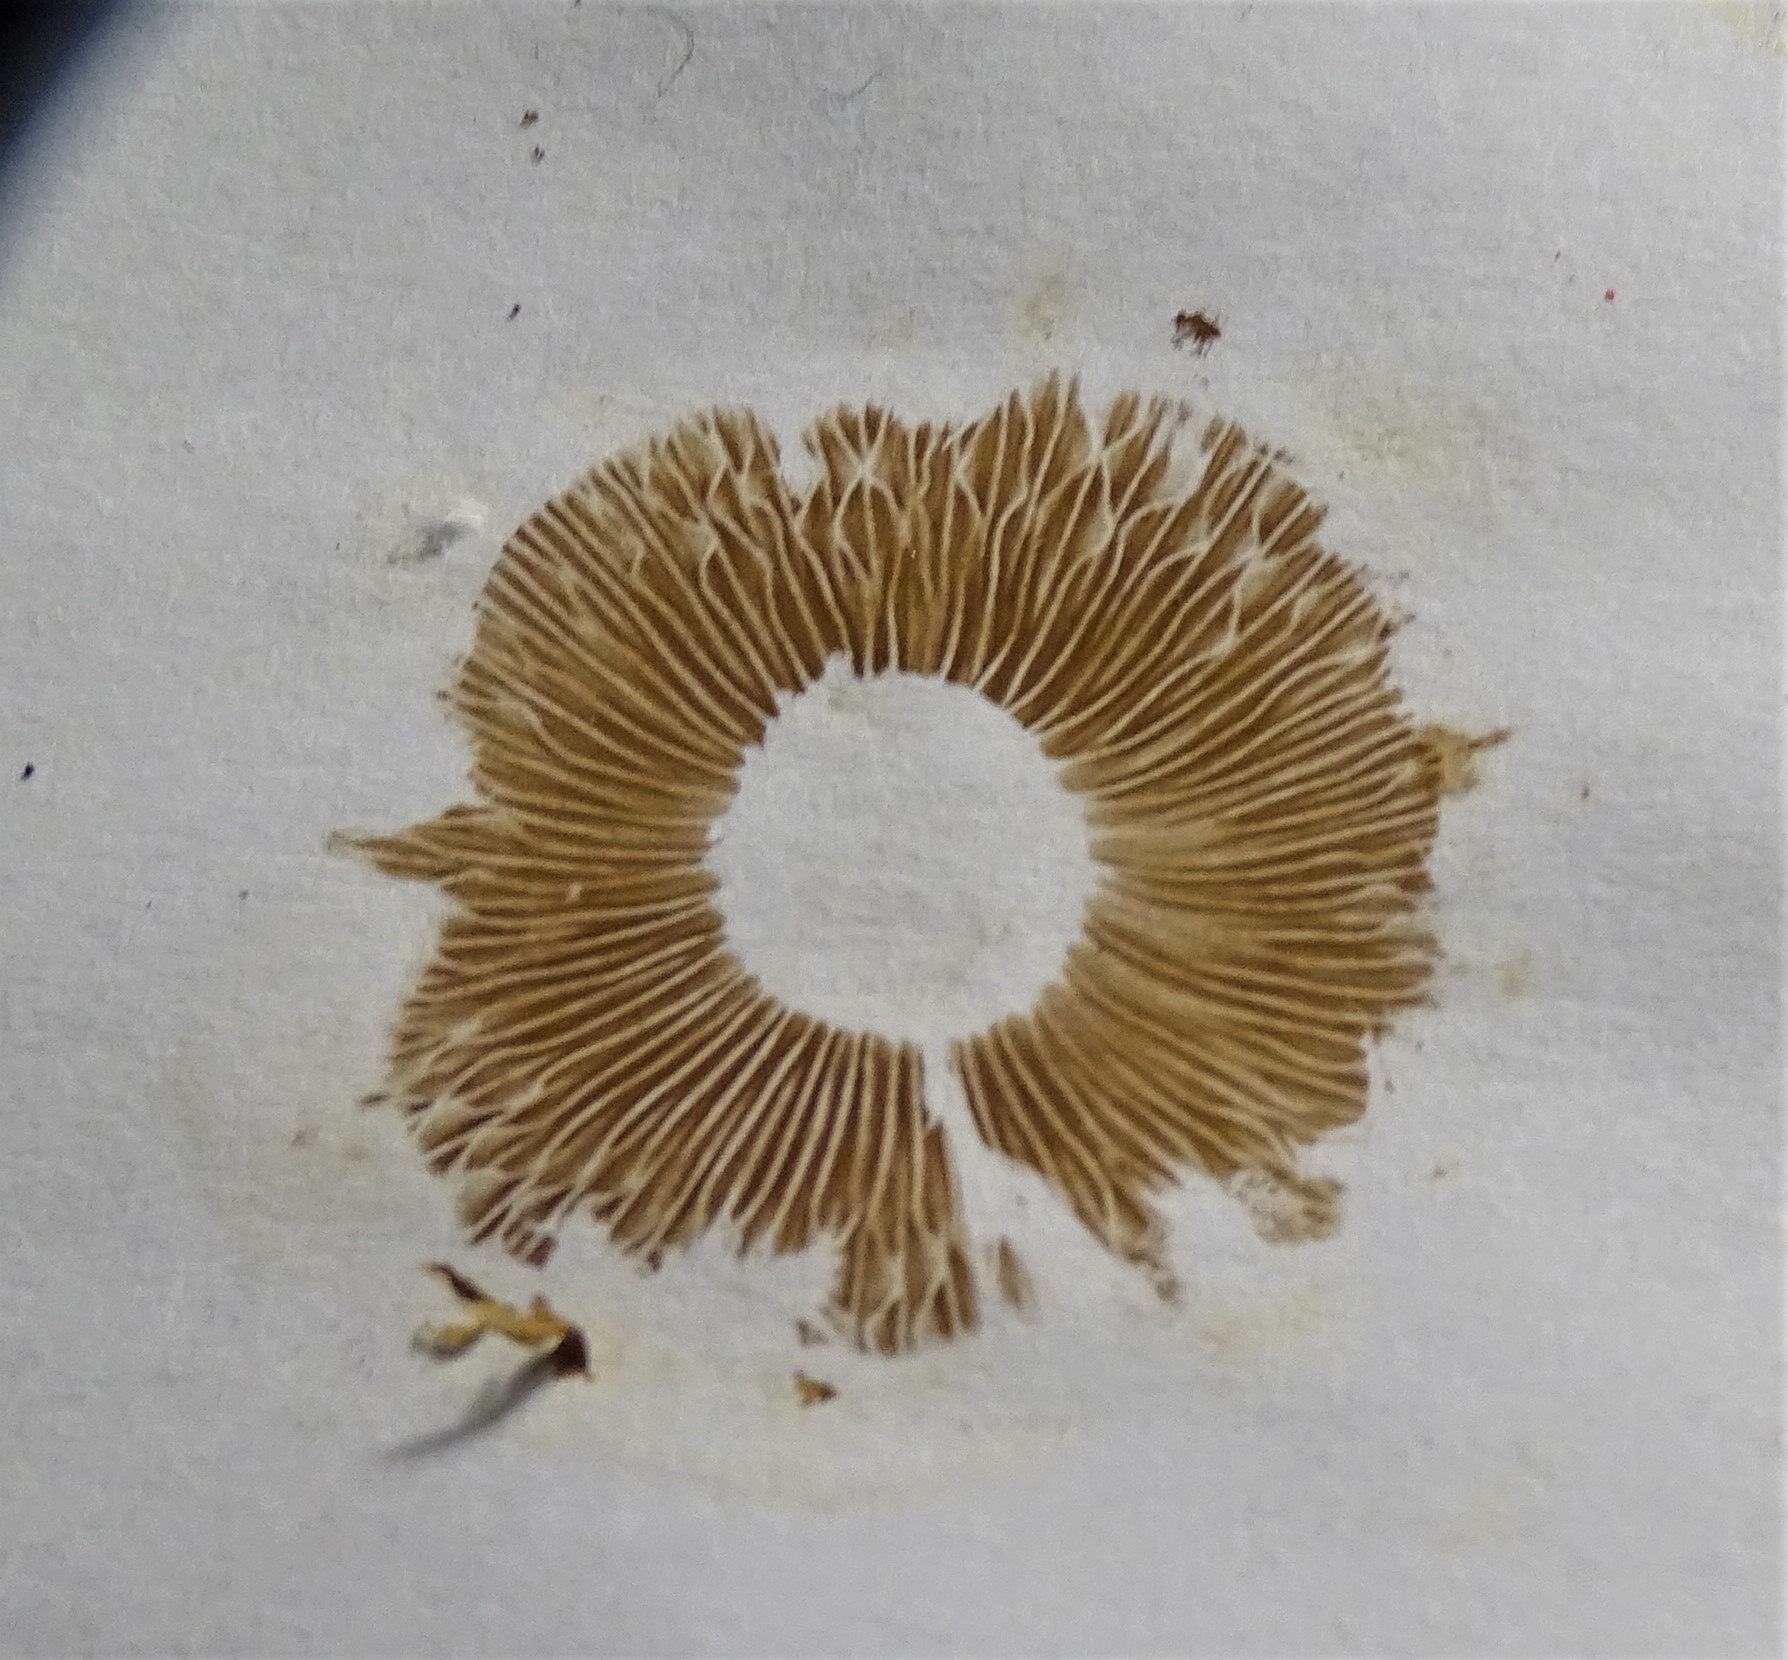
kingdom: Fungi
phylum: Basidiomycota
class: Agaricomycetes
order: Agaricales
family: Strophariaceae
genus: Pholiota
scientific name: Pholiota aurivella
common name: Golden scalycap
